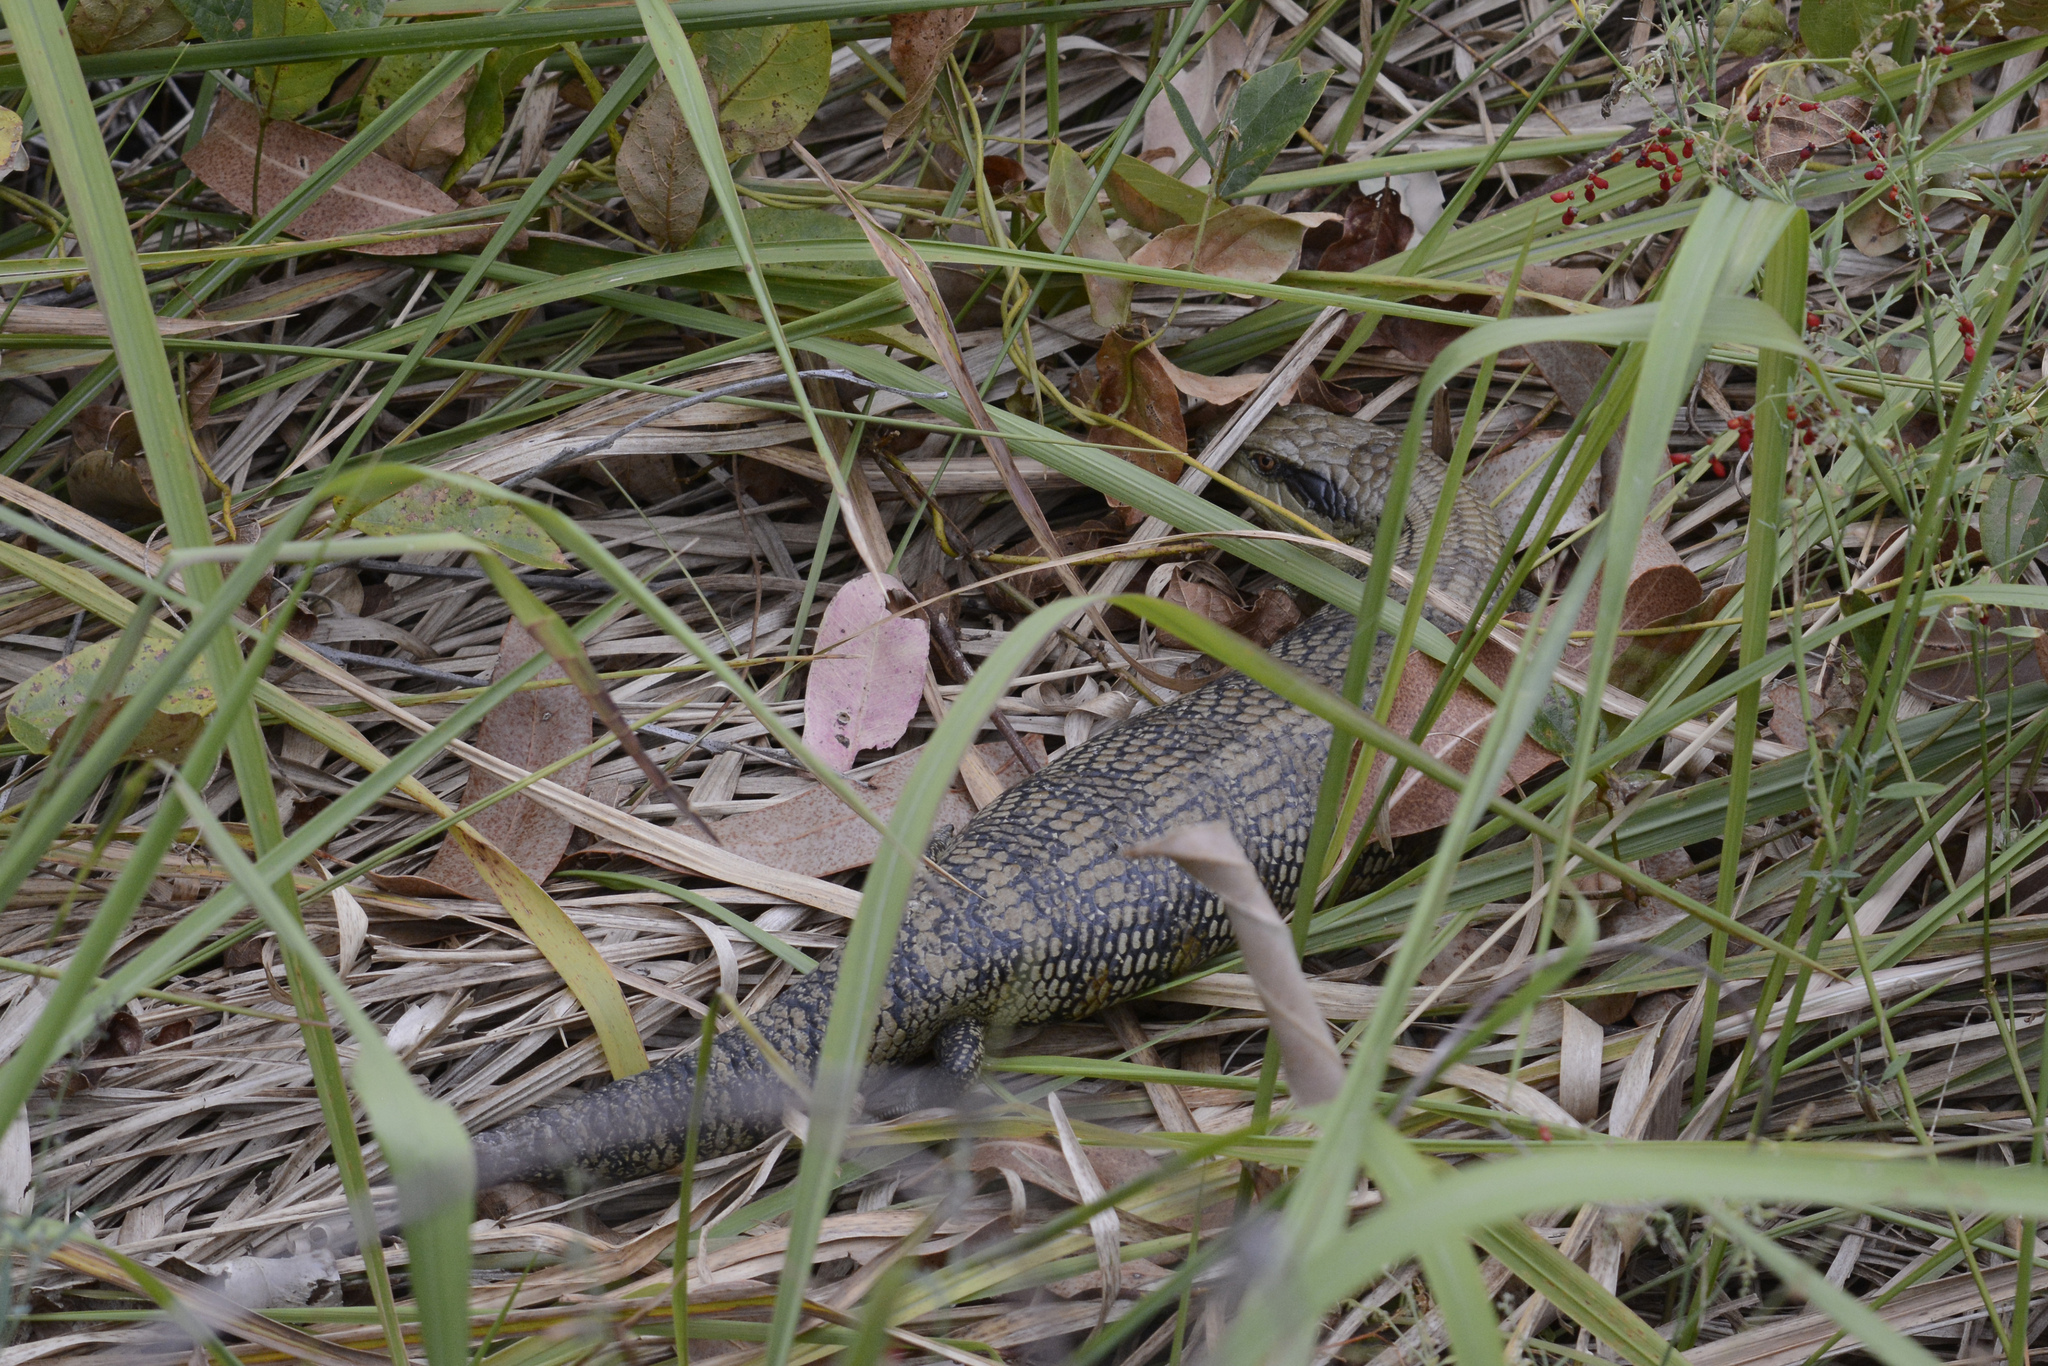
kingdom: Animalia
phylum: Chordata
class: Squamata
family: Scincidae
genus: Tiliqua
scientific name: Tiliqua scincoides
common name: Common bluetongue
